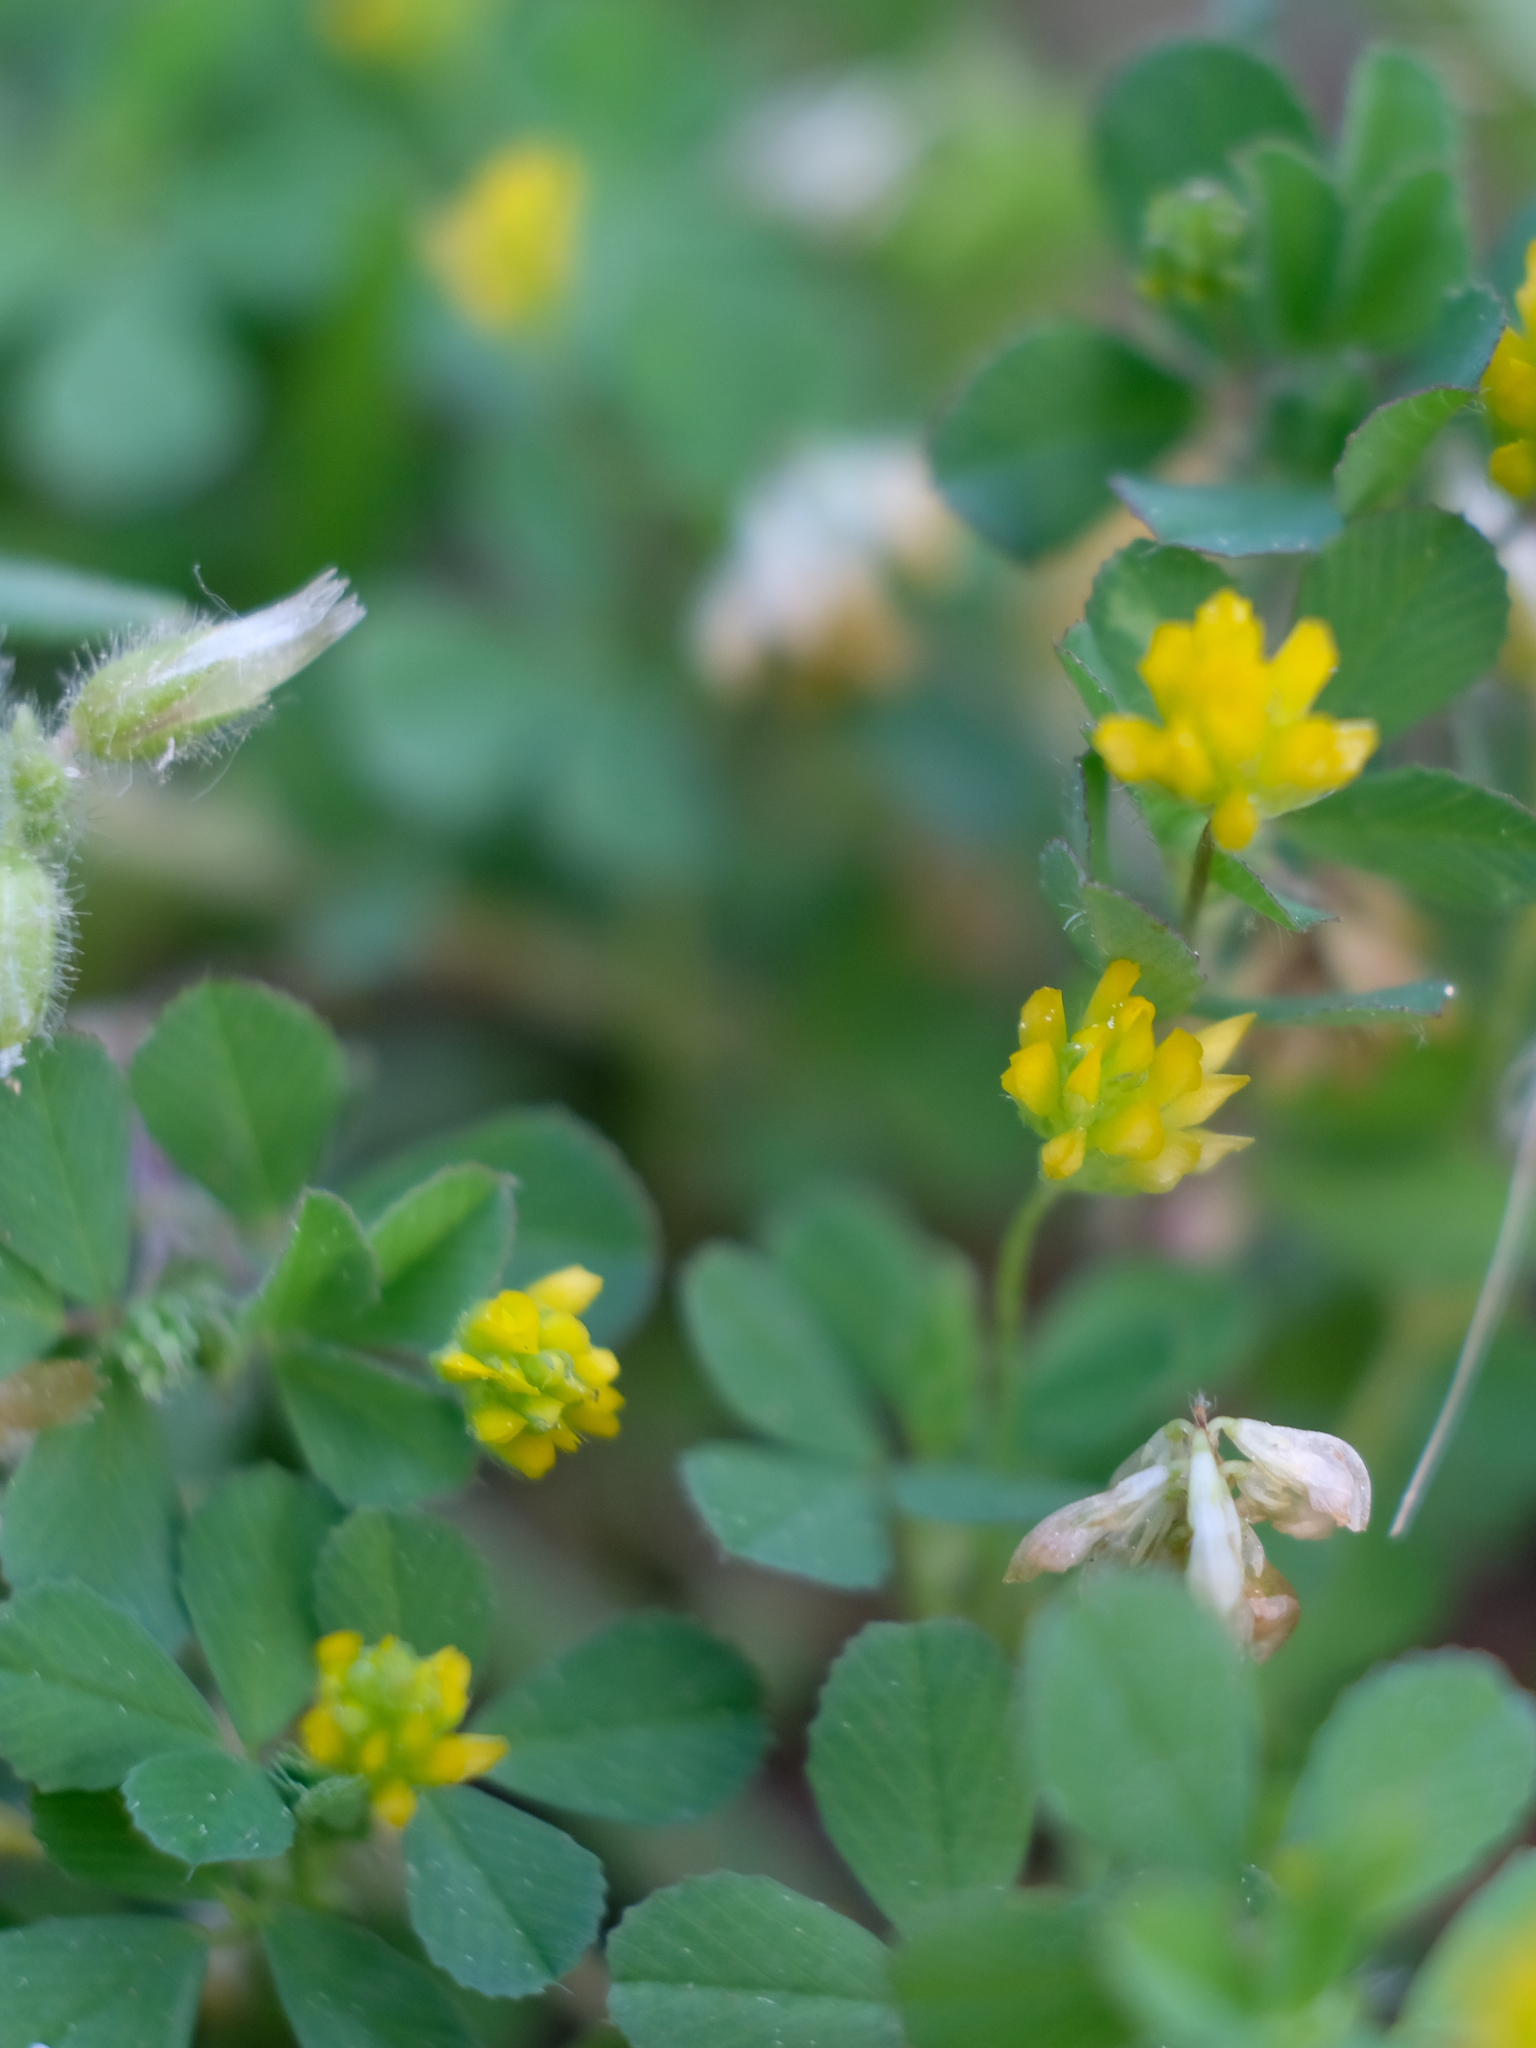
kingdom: Plantae
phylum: Tracheophyta
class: Magnoliopsida
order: Fabales
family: Fabaceae
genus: Trifolium
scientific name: Trifolium dubium
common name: Suckling clover
